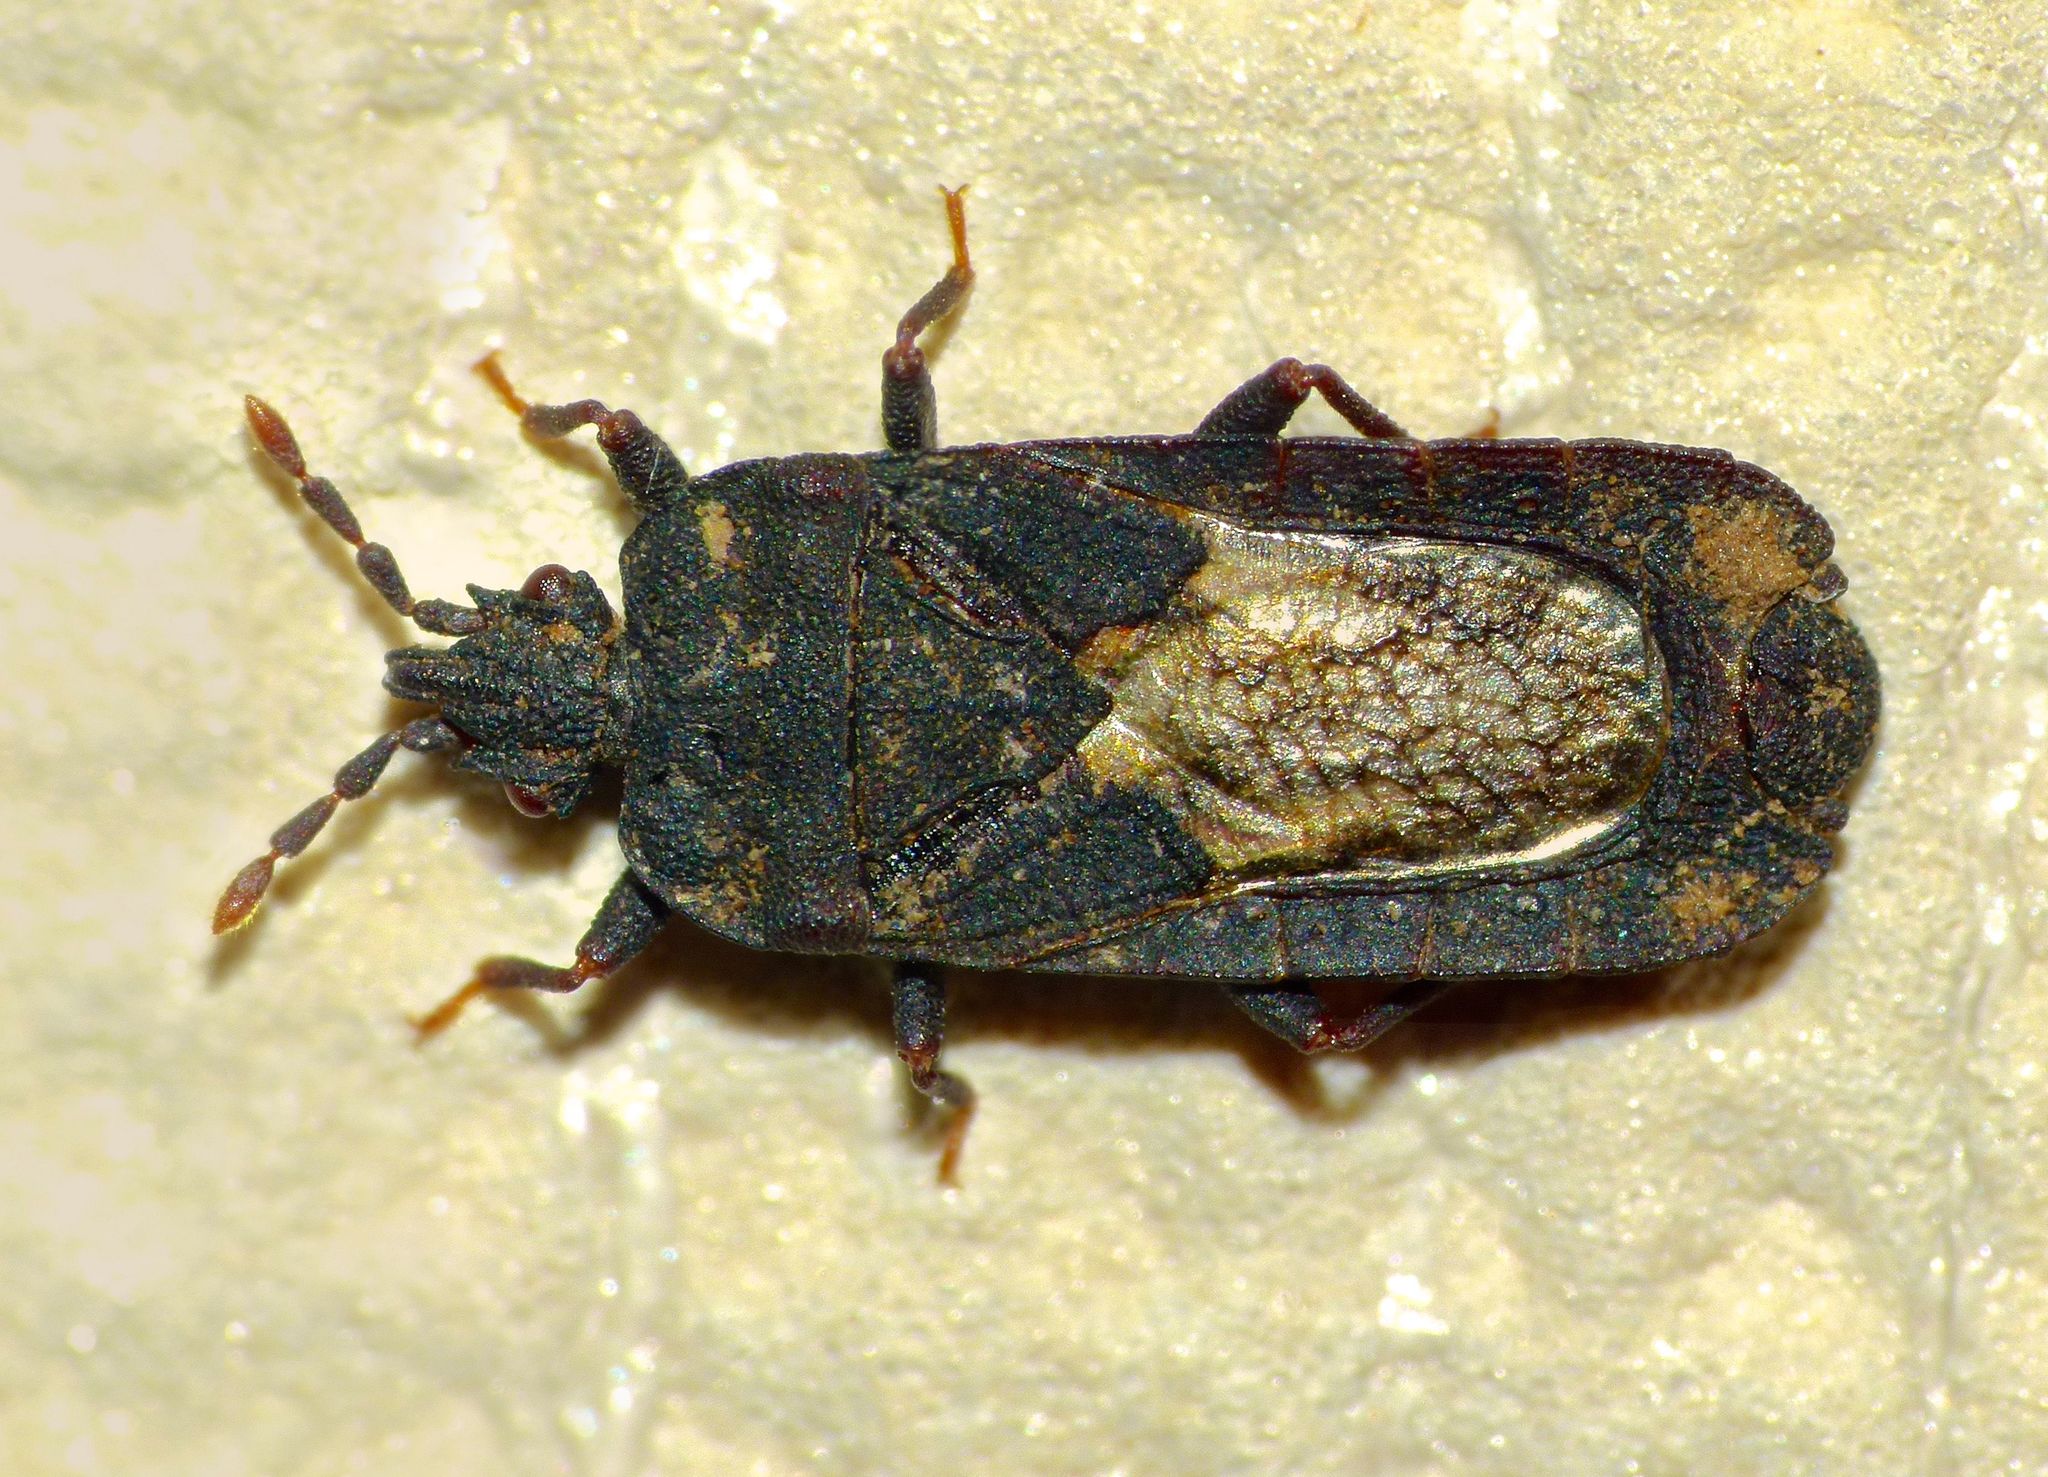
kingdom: Animalia
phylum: Arthropoda
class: Insecta
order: Hemiptera
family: Aradidae
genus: Ctenoneurus
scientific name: Ctenoneurus
